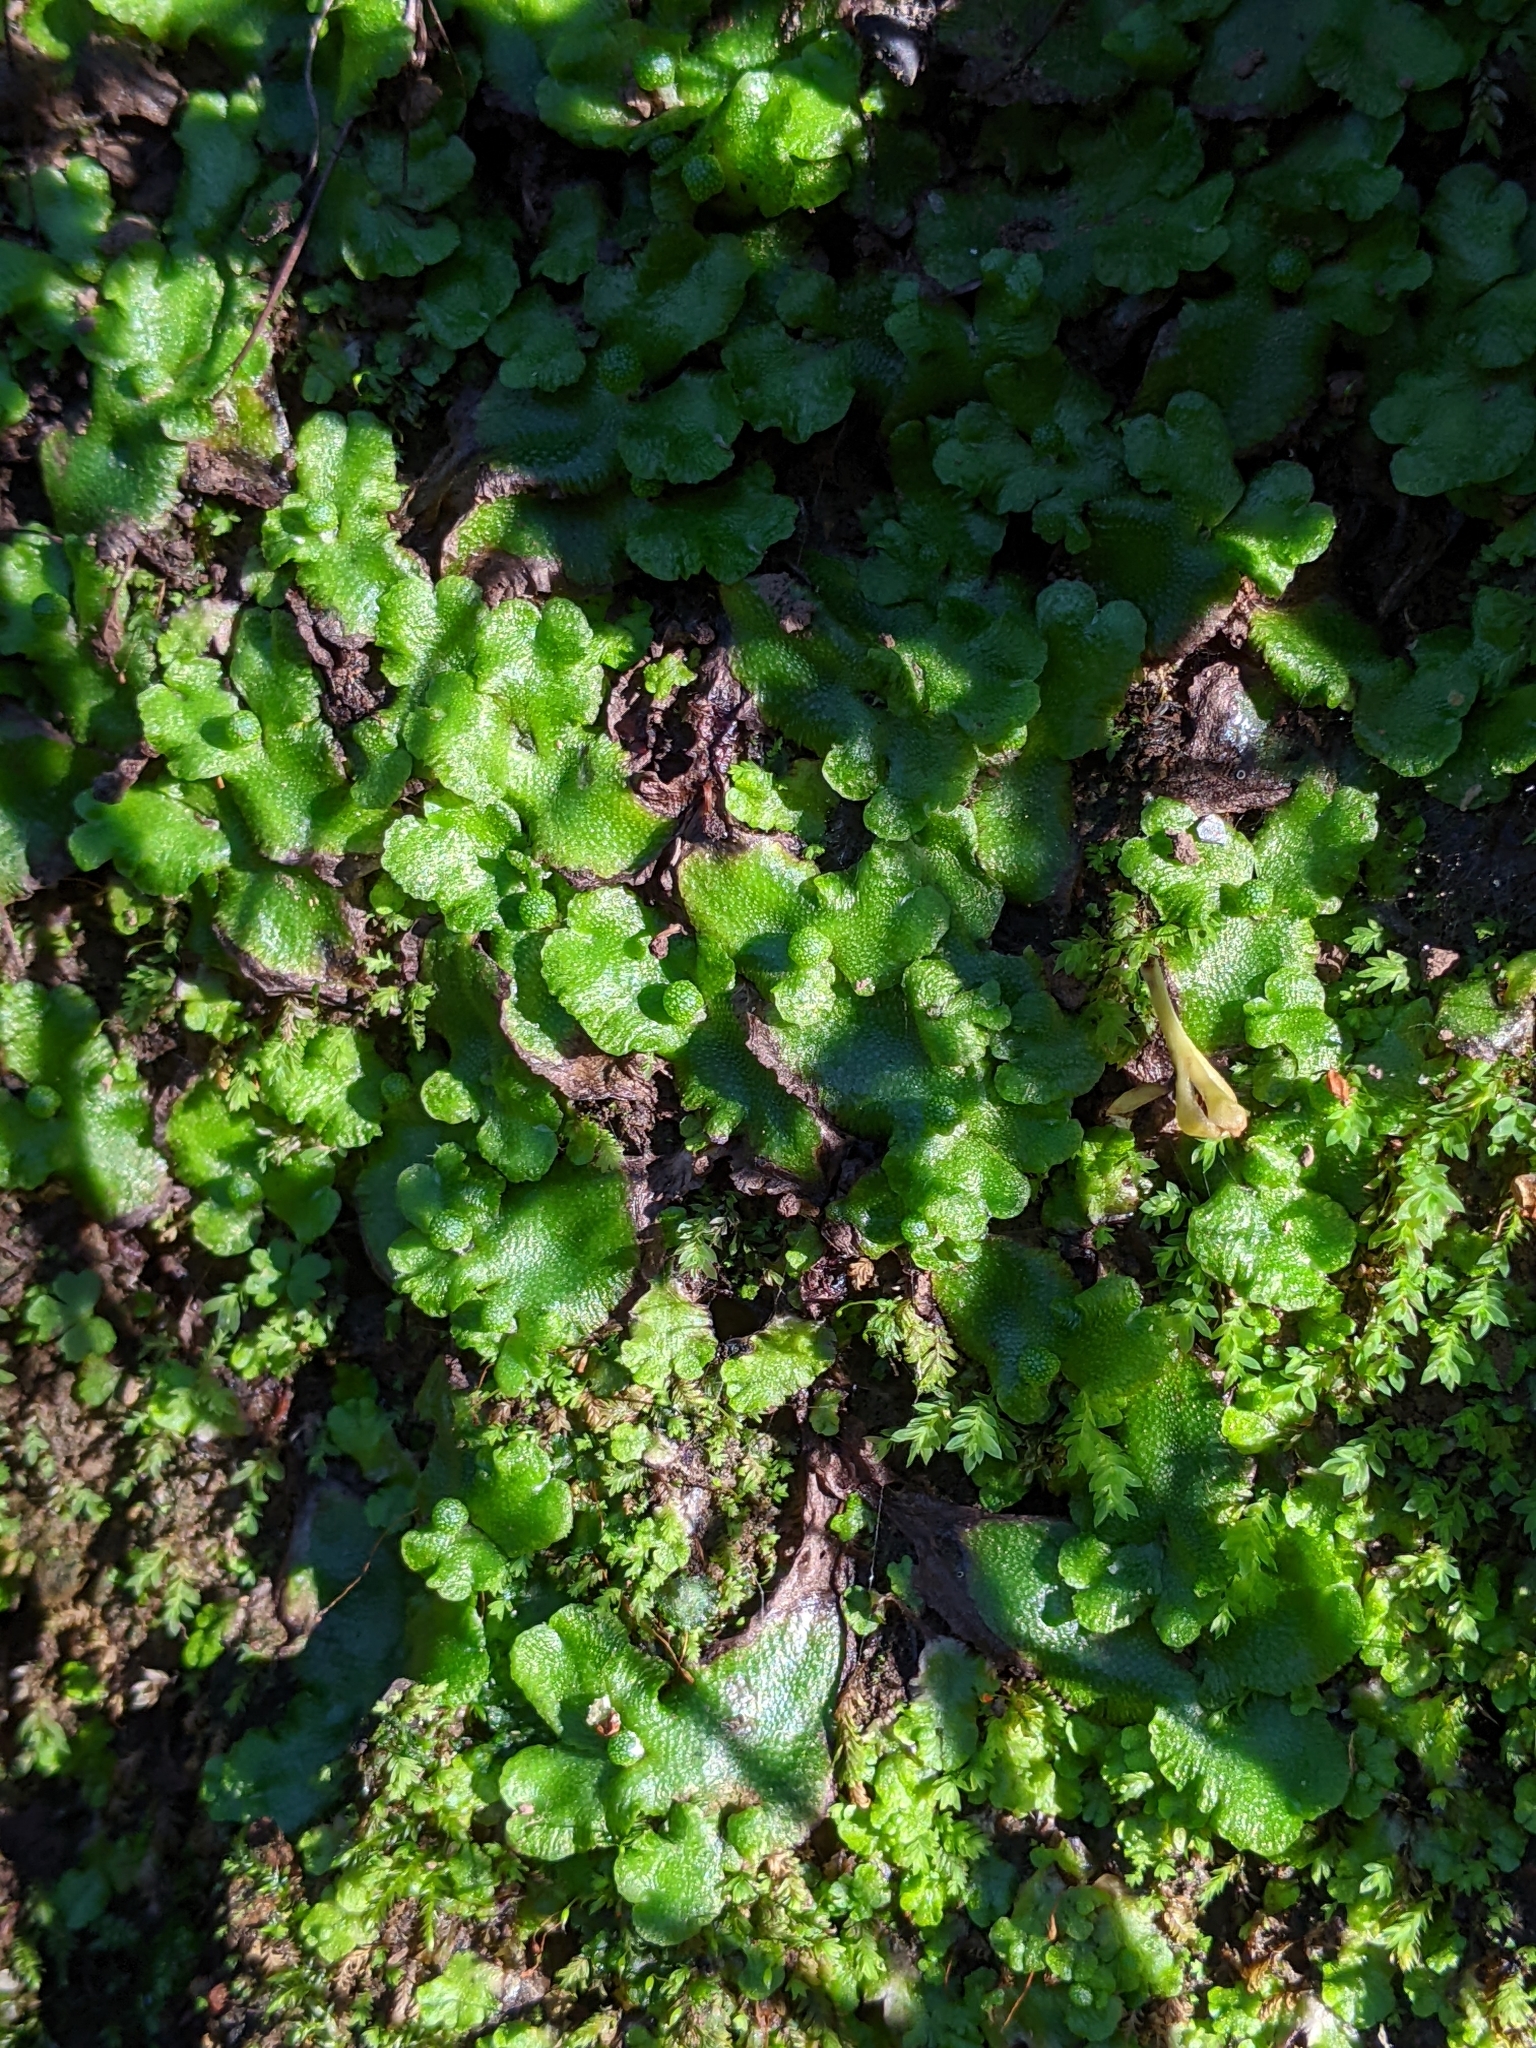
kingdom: Plantae
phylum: Marchantiophyta
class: Marchantiopsida
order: Marchantiales
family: Aytoniaceae
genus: Asterella
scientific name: Asterella californica
